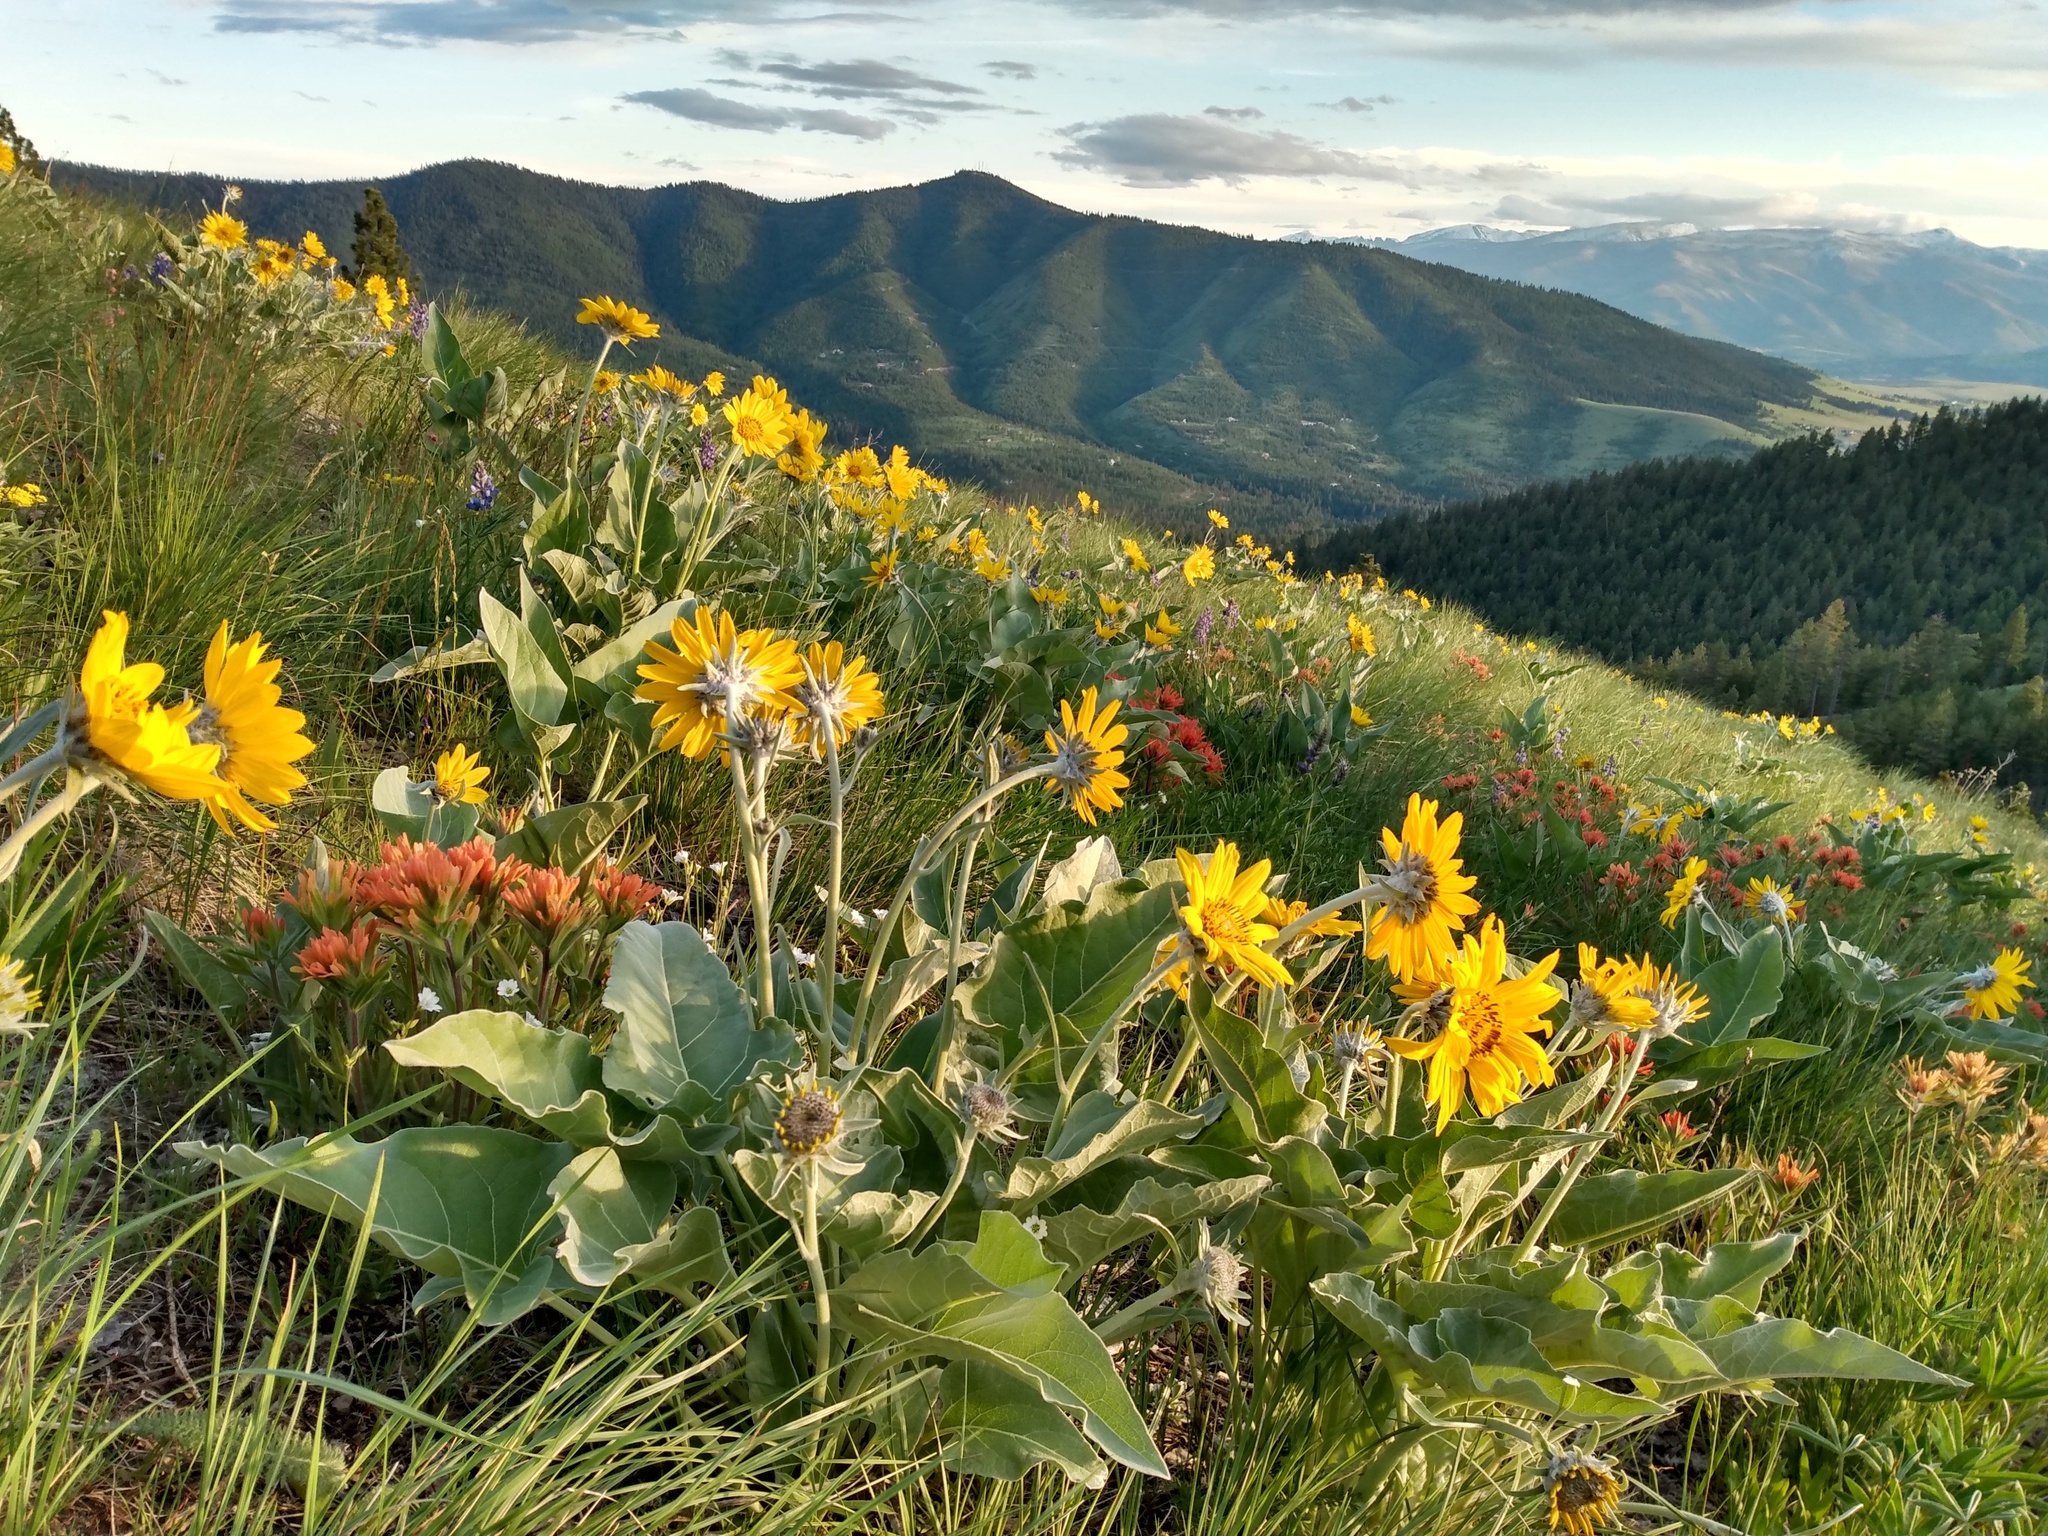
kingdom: Plantae
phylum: Tracheophyta
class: Magnoliopsida
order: Asterales
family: Asteraceae
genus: Wyethia
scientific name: Wyethia sagittata
